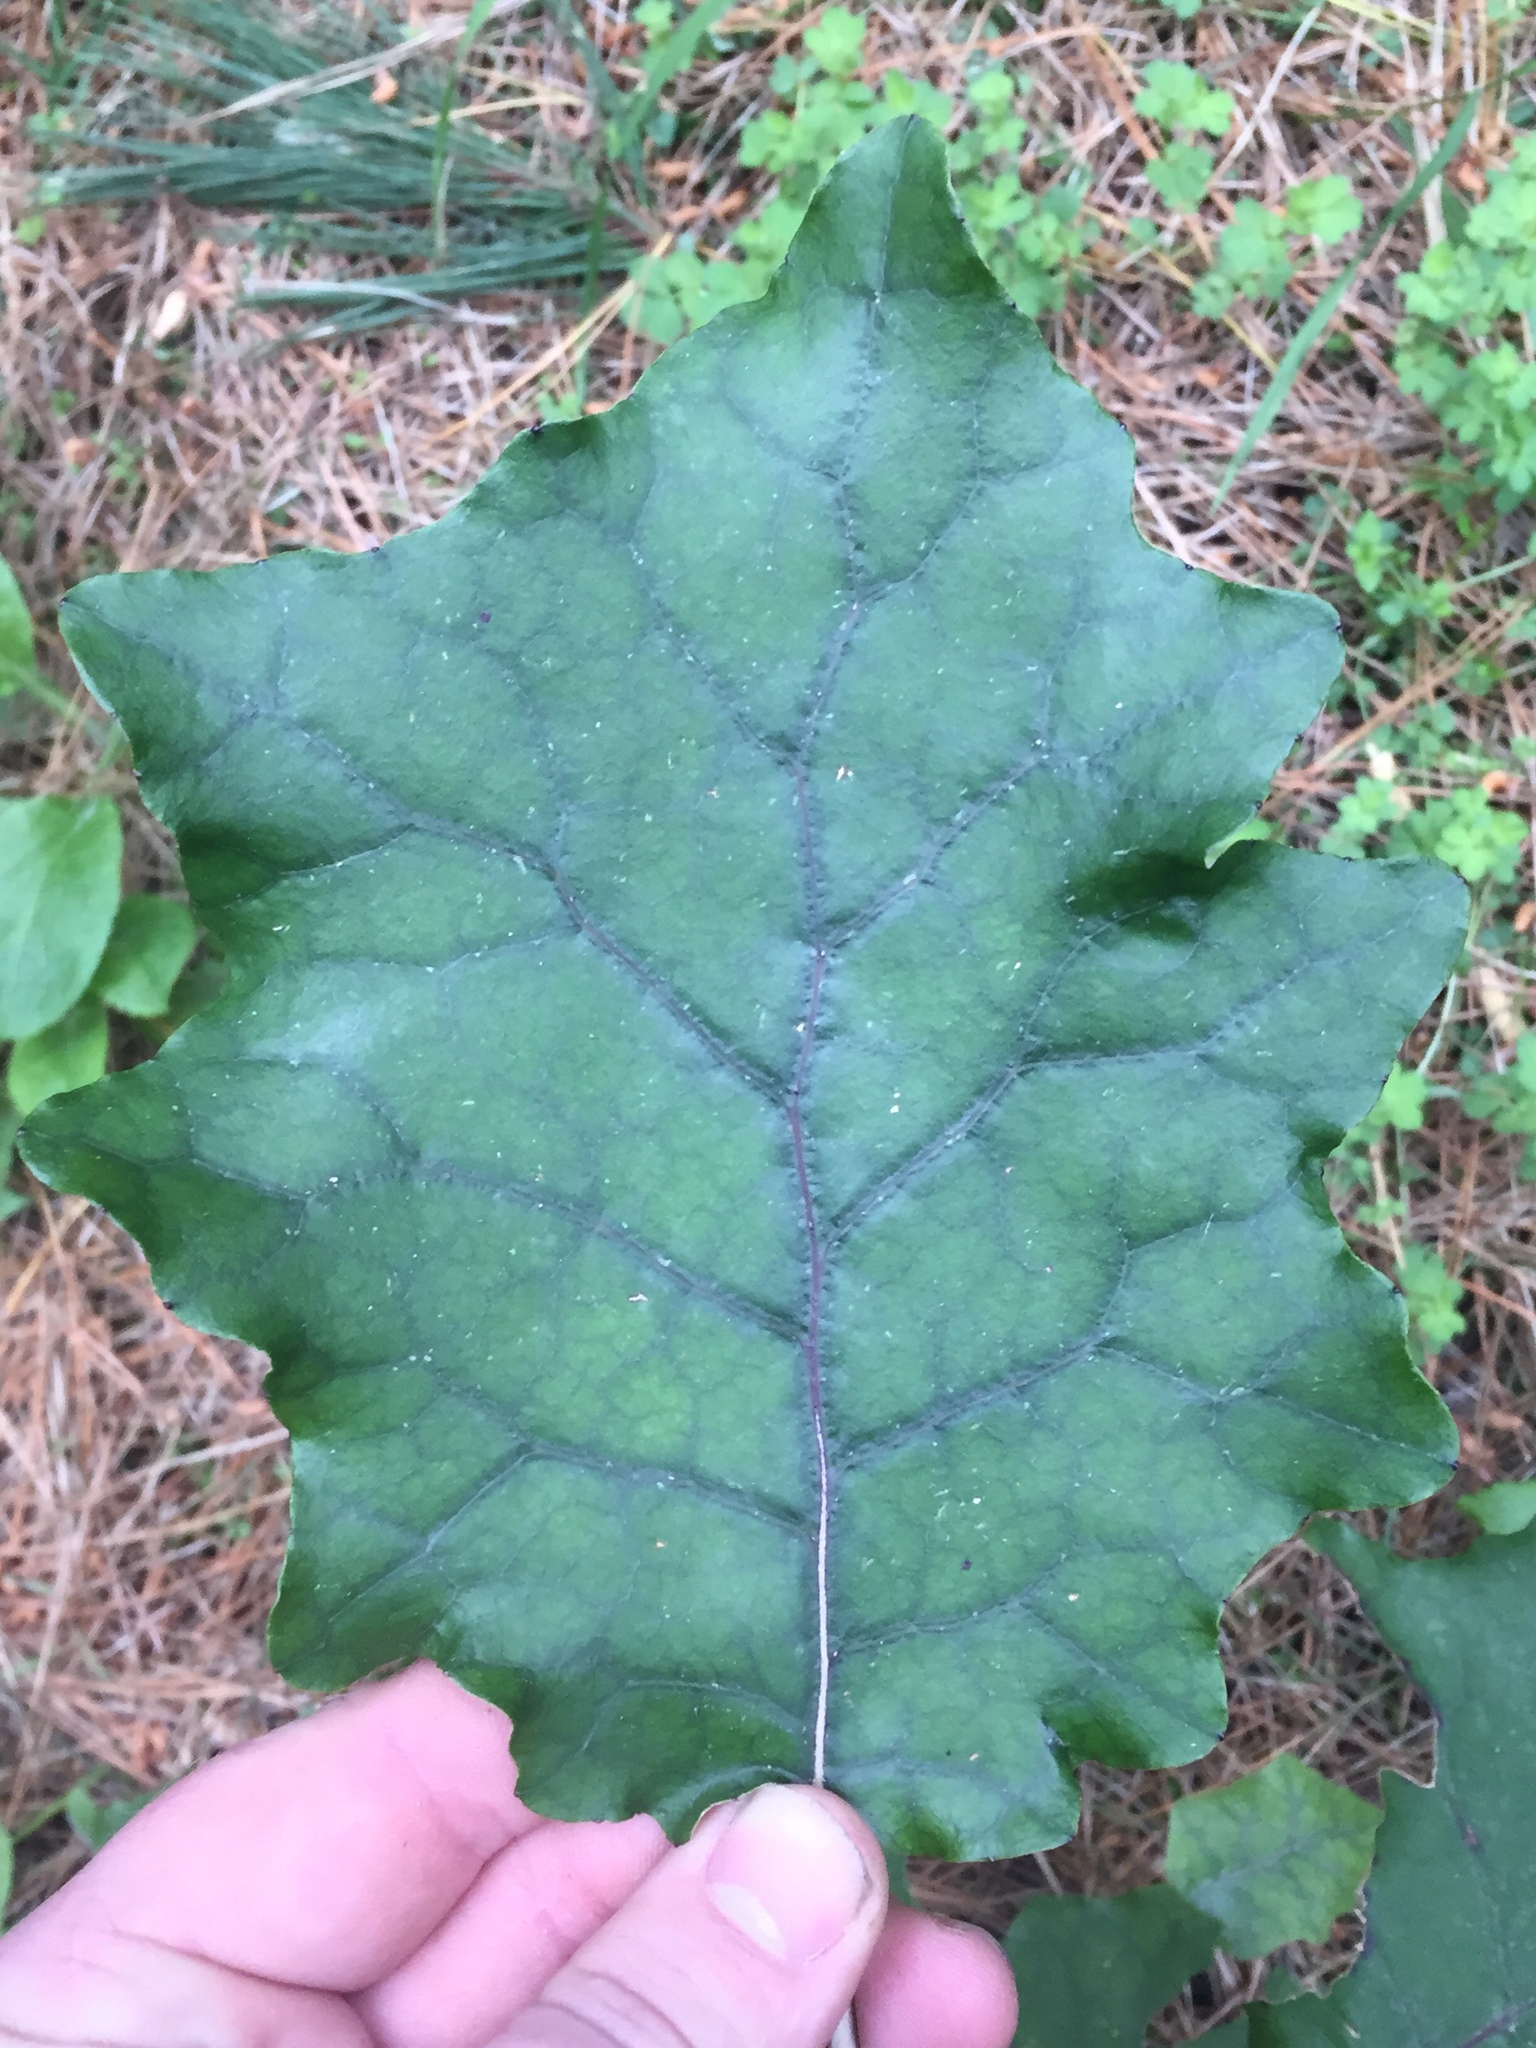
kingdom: Plantae
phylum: Tracheophyta
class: Magnoliopsida
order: Asterales
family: Asteraceae
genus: Brachyglottis
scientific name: Brachyglottis repanda
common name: Hedge ragwort
